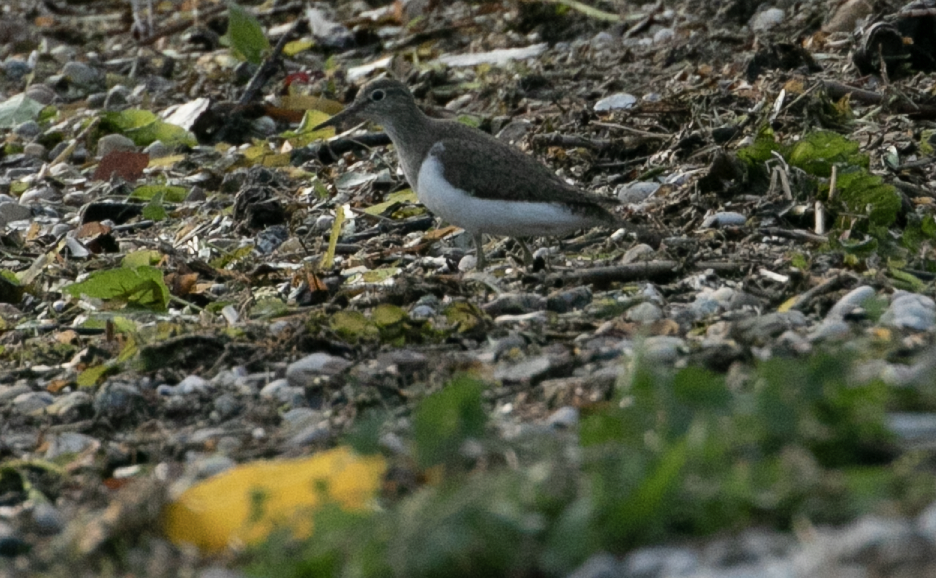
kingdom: Animalia
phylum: Chordata
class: Aves
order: Charadriiformes
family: Scolopacidae
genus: Actitis
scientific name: Actitis hypoleucos
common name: Common sandpiper
